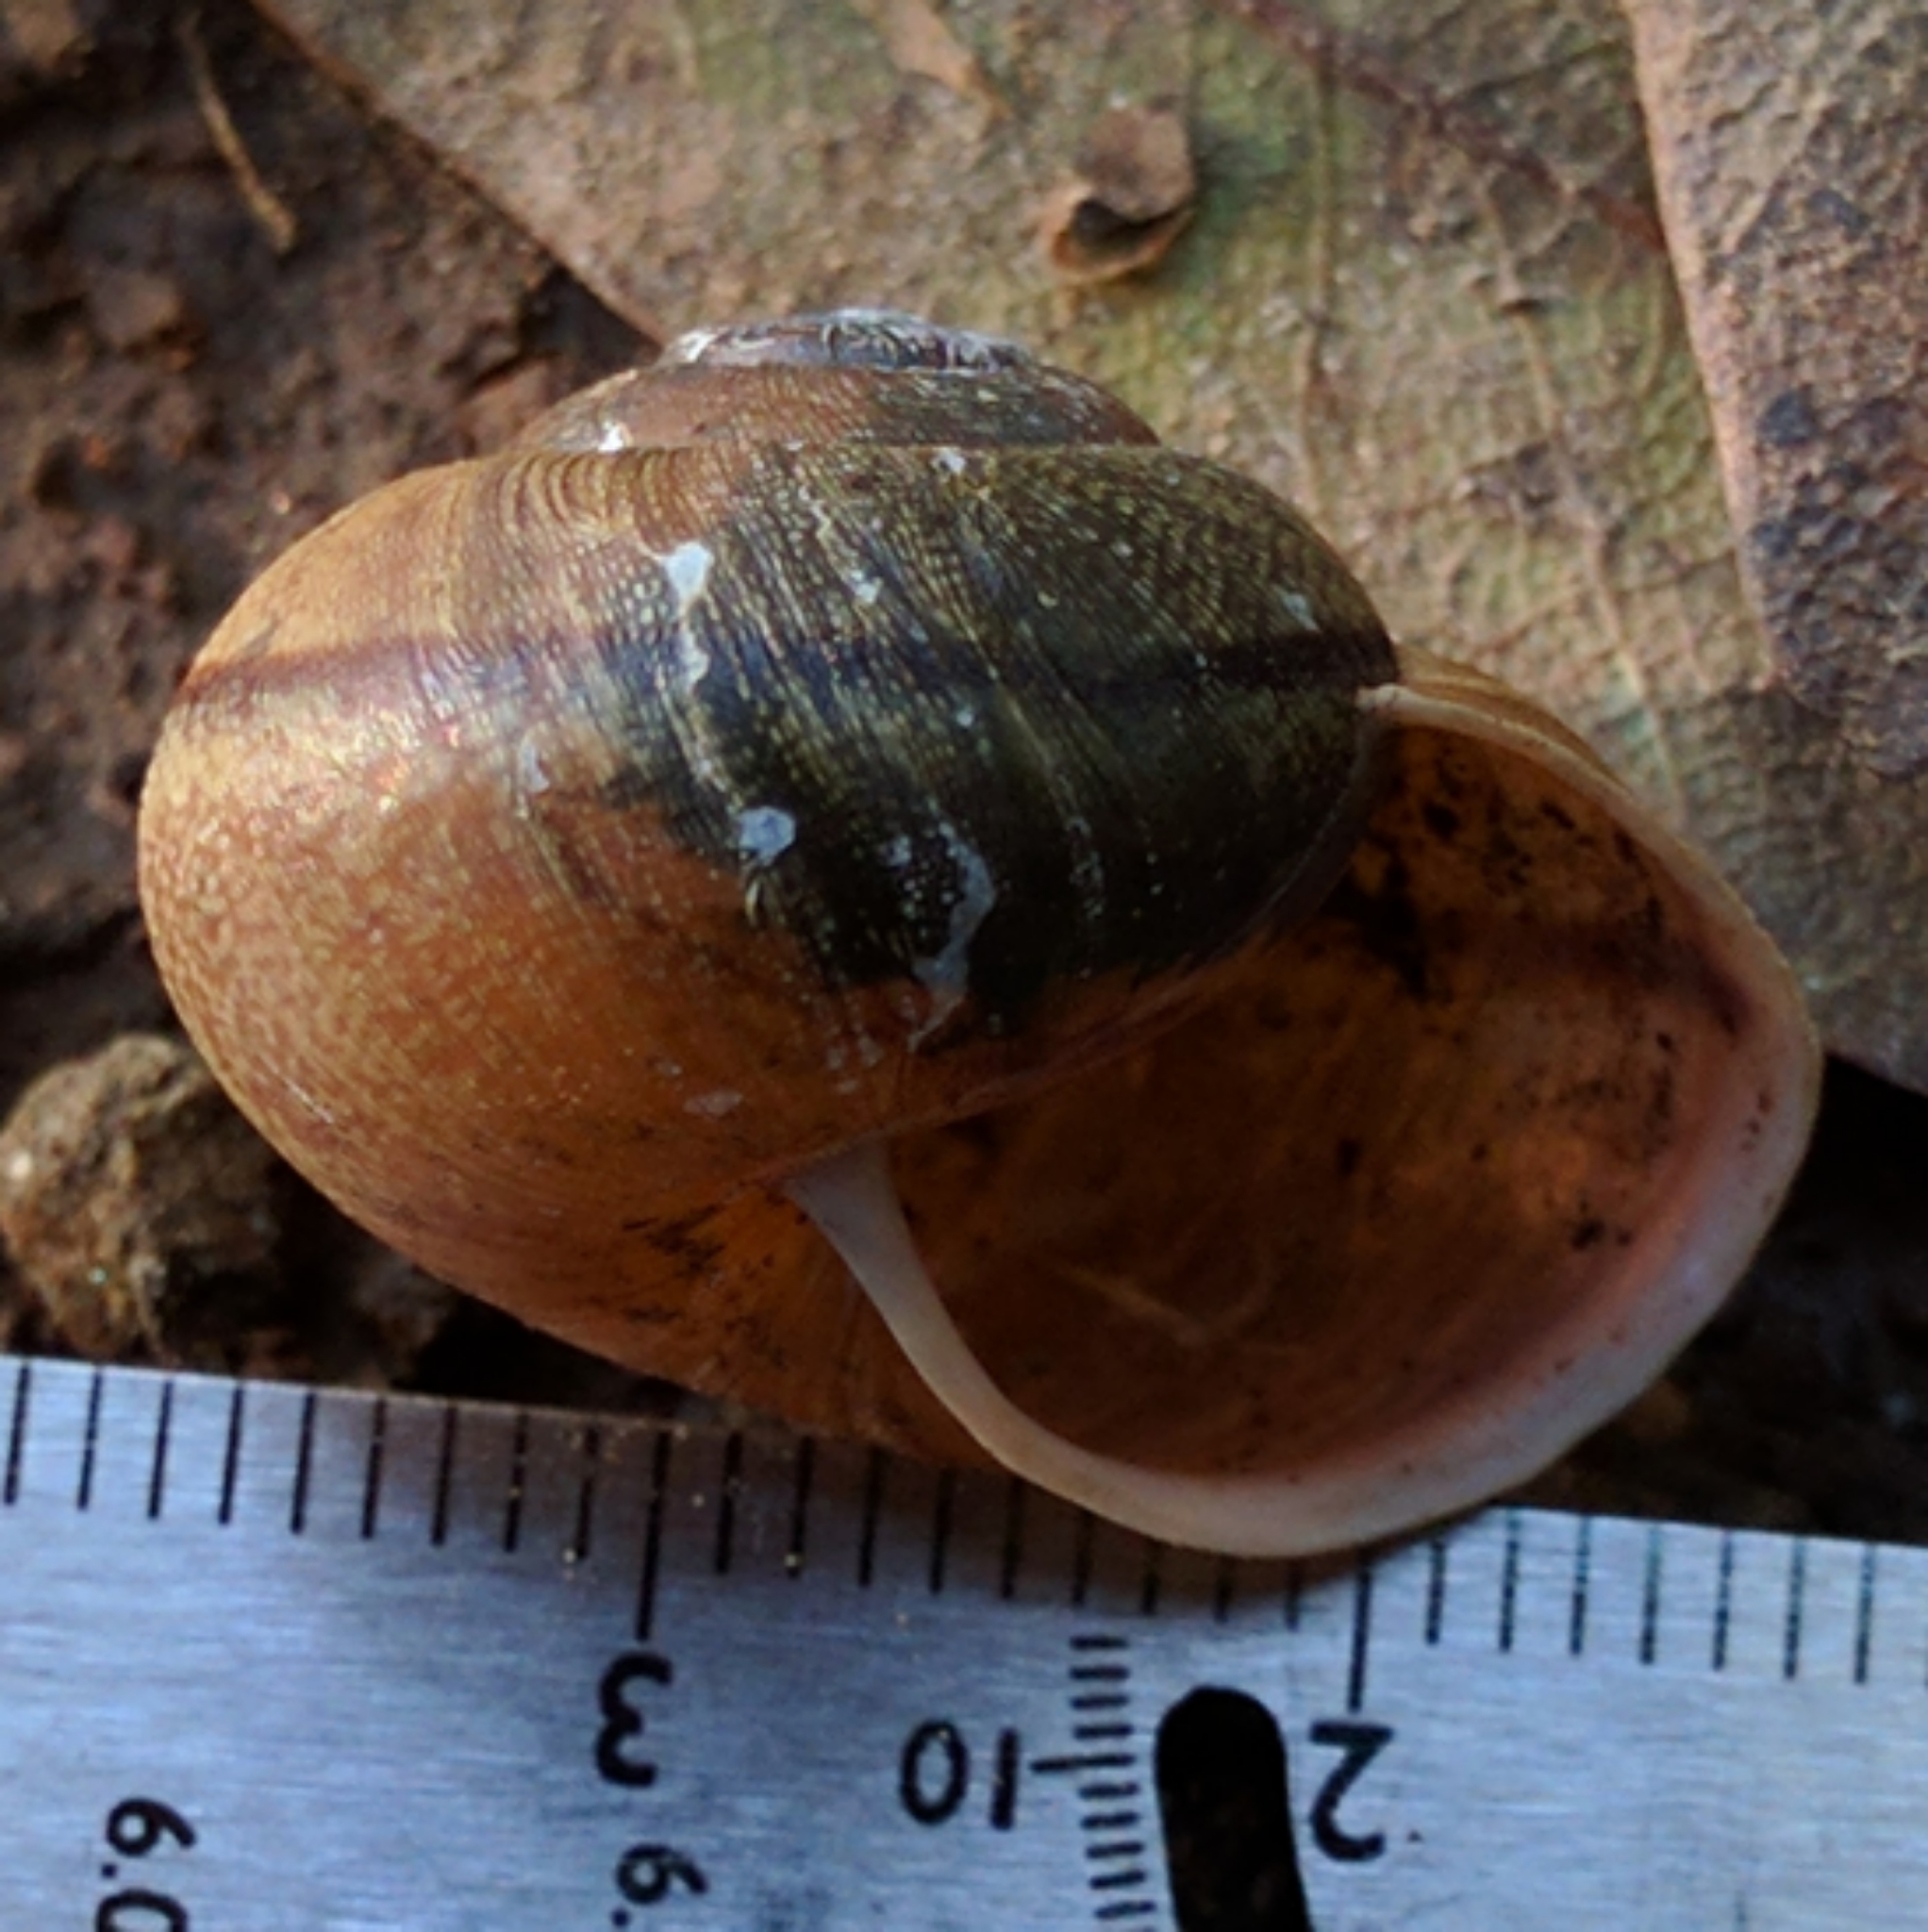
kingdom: Animalia
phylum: Mollusca
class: Gastropoda
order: Stylommatophora
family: Xanthonychidae
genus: Helminthoglypta
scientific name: Helminthoglypta nickliniana
